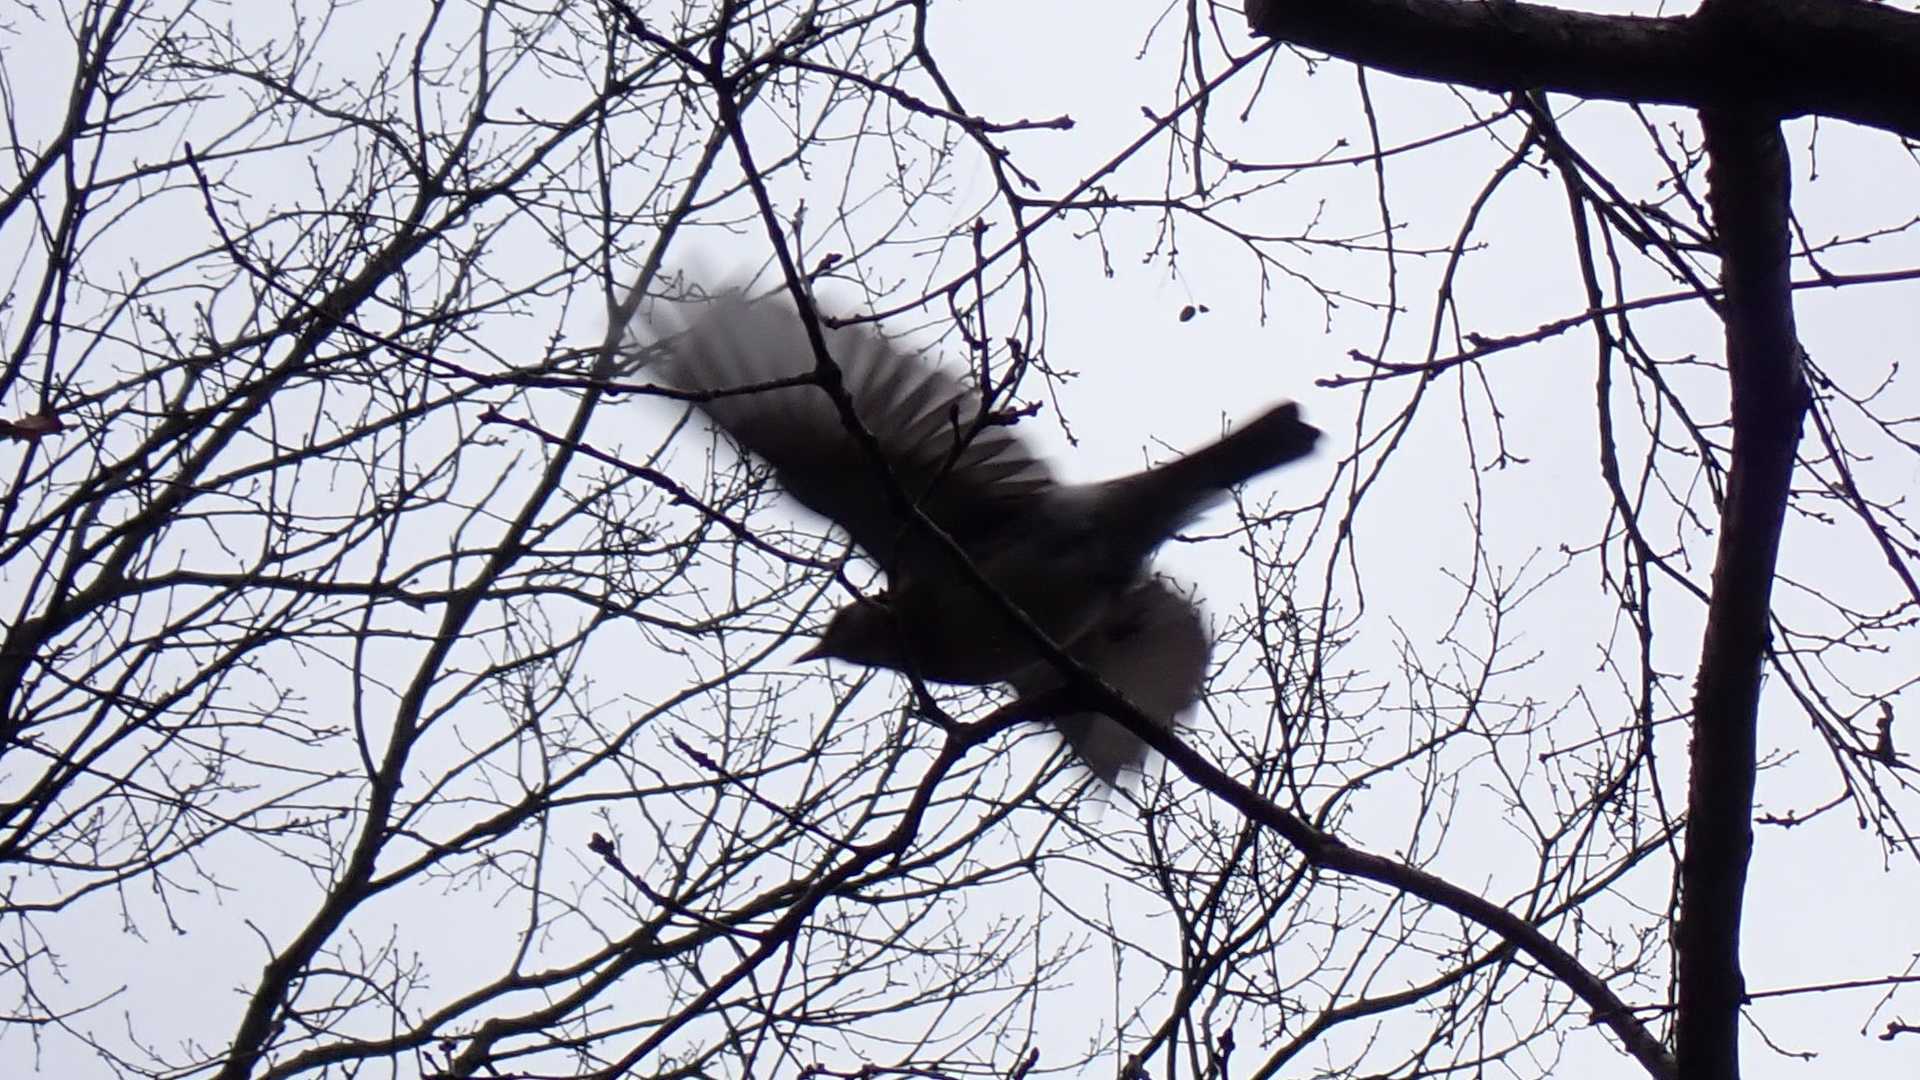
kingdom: Animalia
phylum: Chordata
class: Aves
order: Passeriformes
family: Turdidae
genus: Turdus
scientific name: Turdus pilaris
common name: Fieldfare
